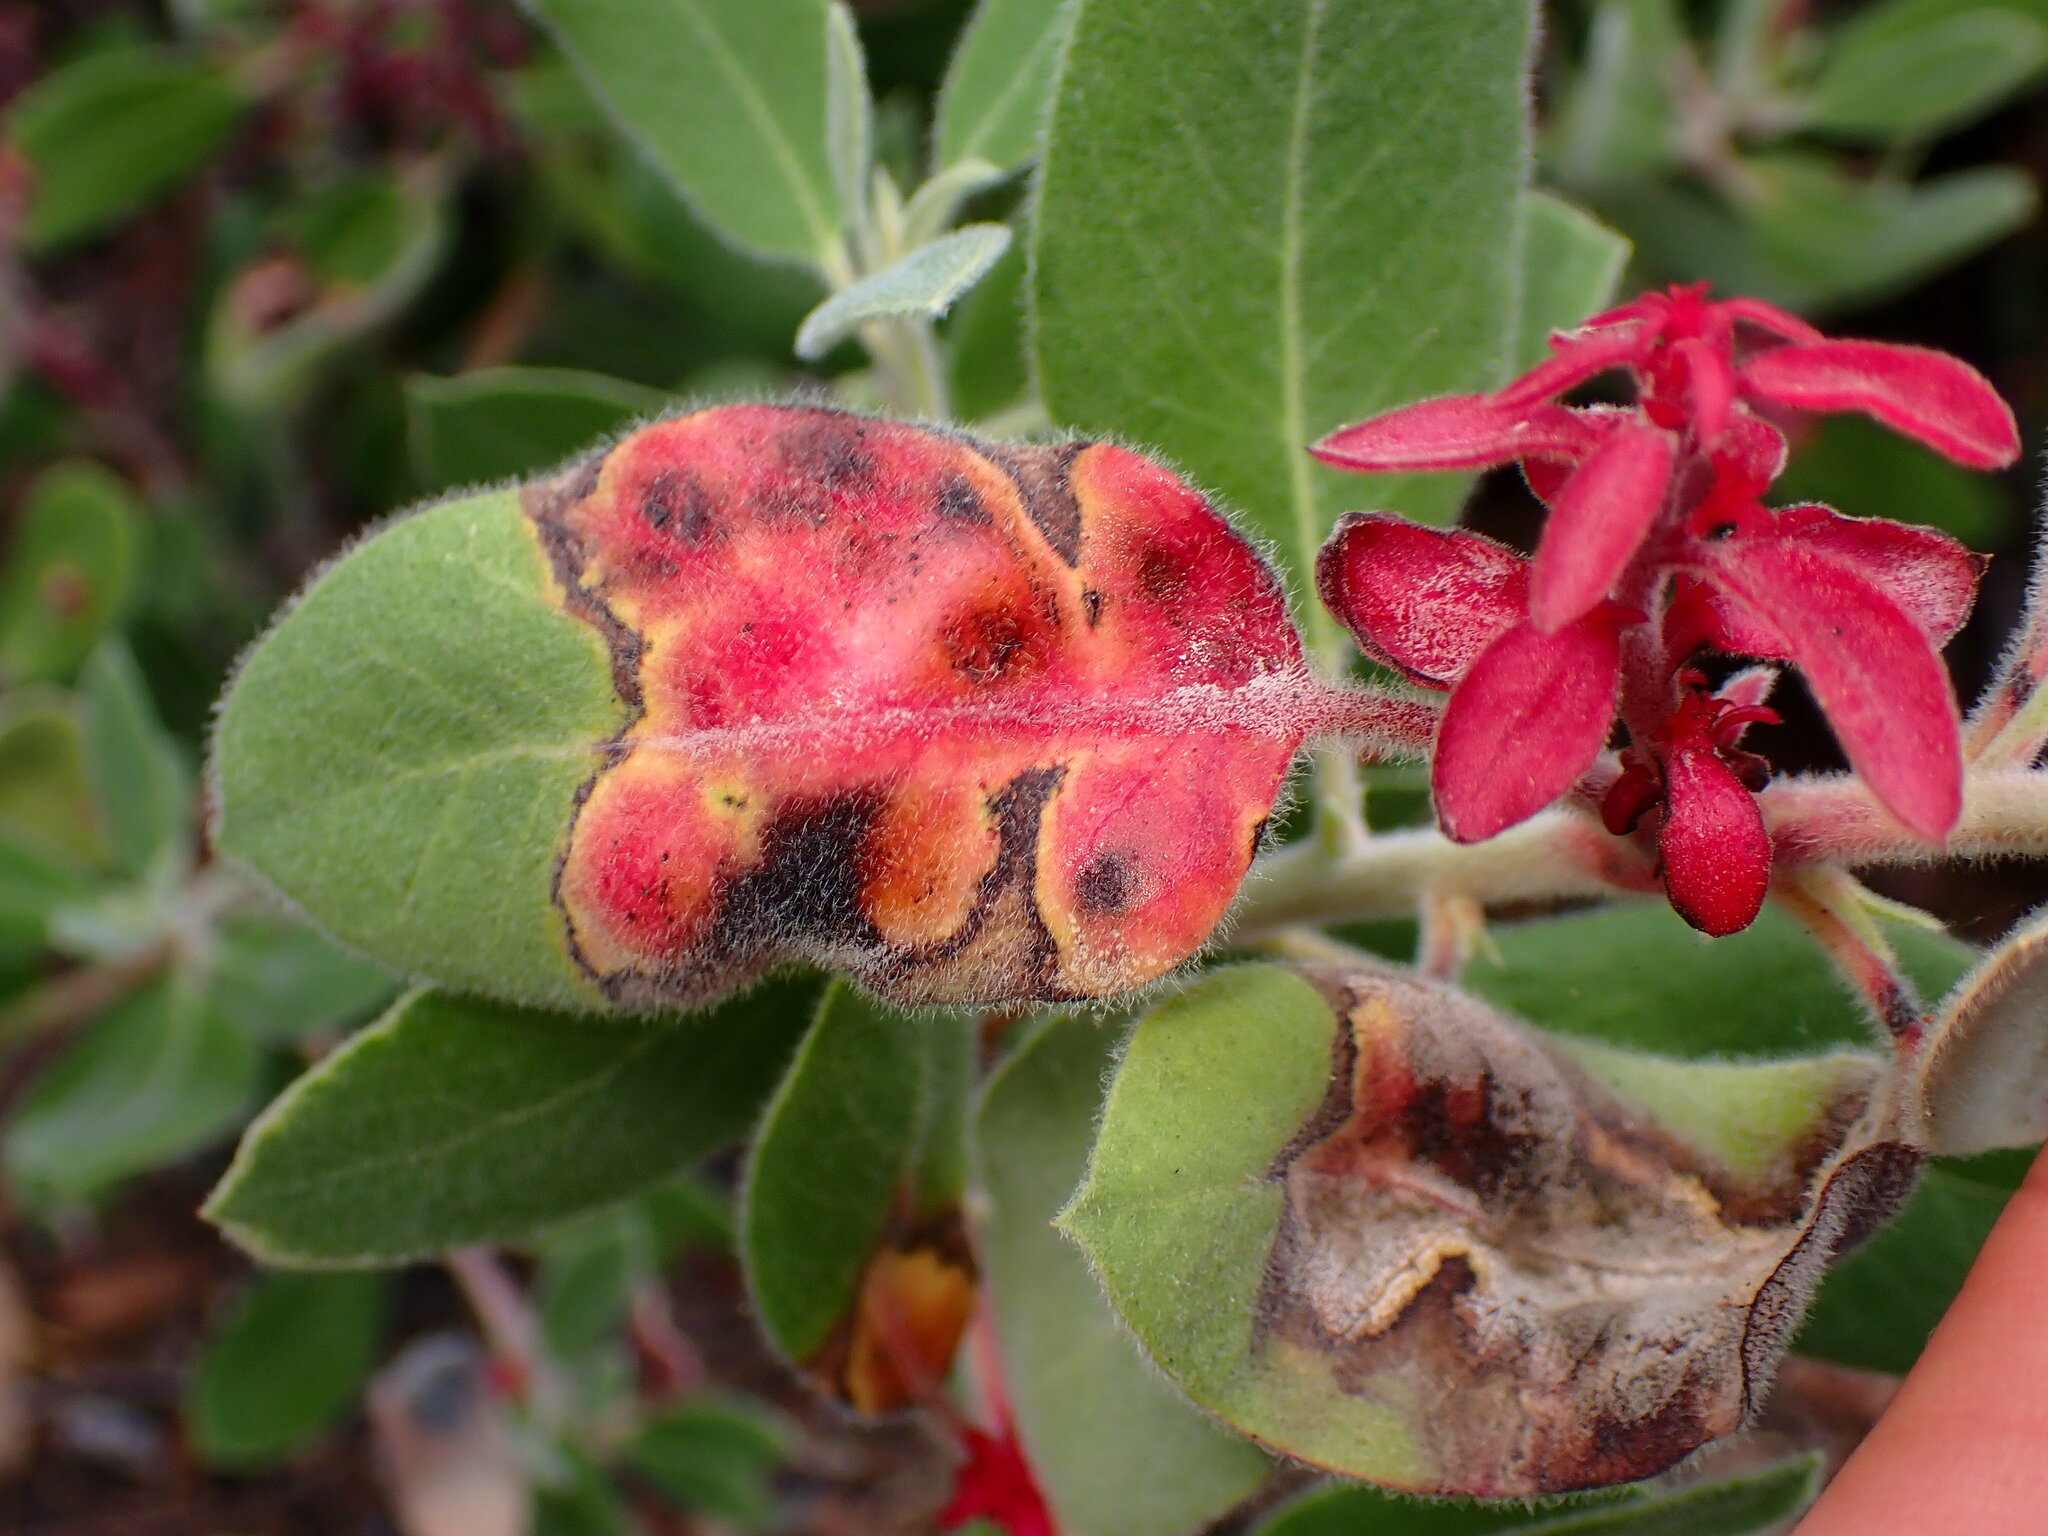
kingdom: Fungi
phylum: Basidiomycota
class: Exobasidiomycetes
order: Exobasidiales
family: Exobasidiaceae
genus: Exobasidium
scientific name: Exobasidium arctostaphyli
